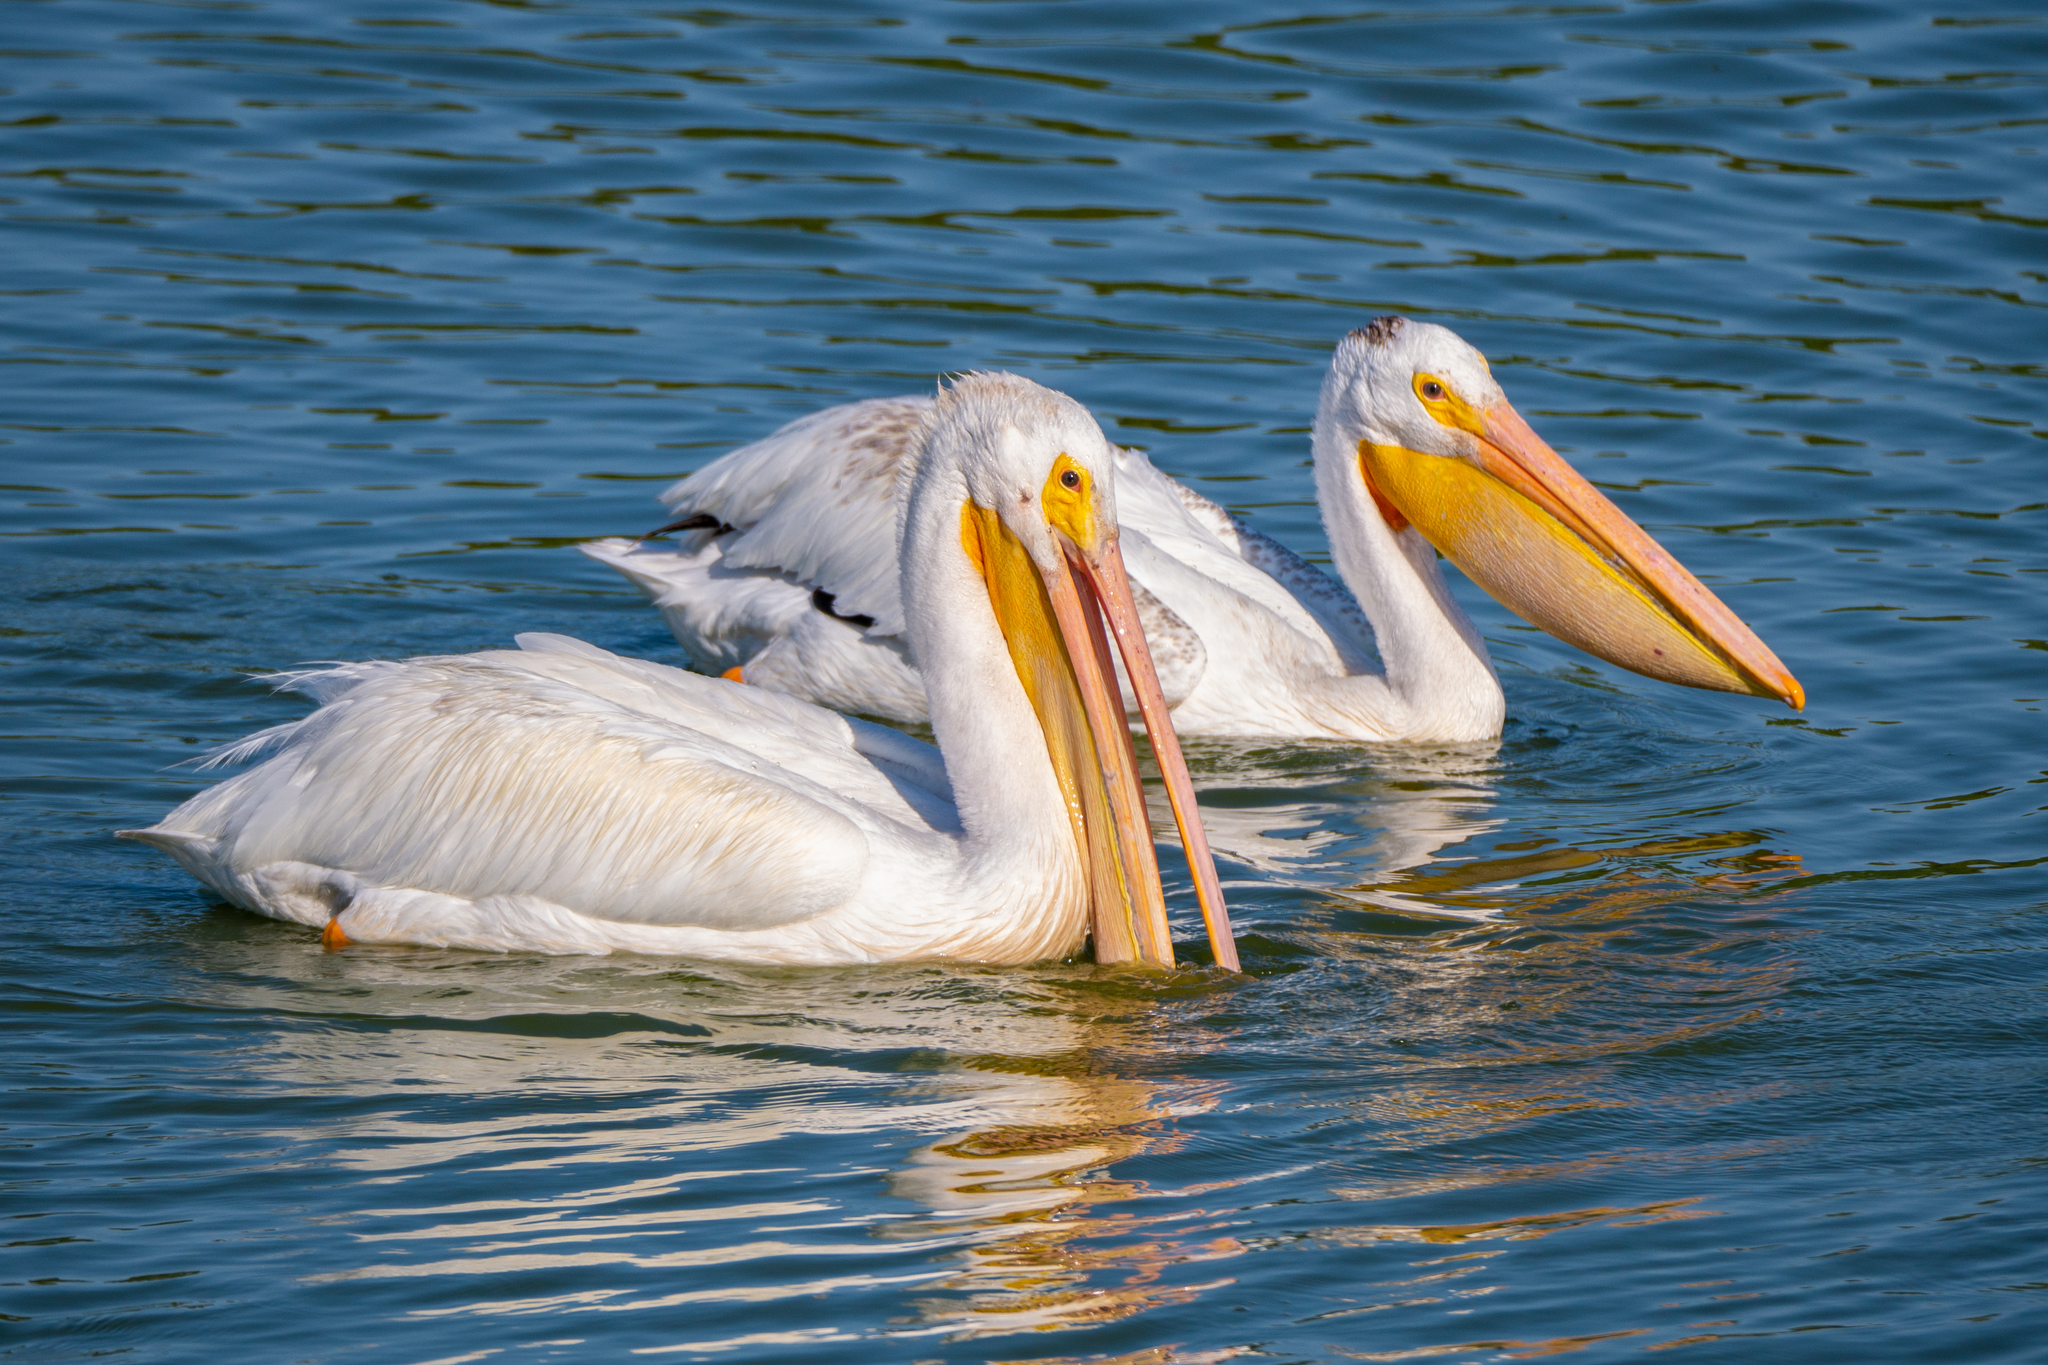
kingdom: Animalia
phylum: Chordata
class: Aves
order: Pelecaniformes
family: Pelecanidae
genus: Pelecanus
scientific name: Pelecanus erythrorhynchos
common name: American white pelican
